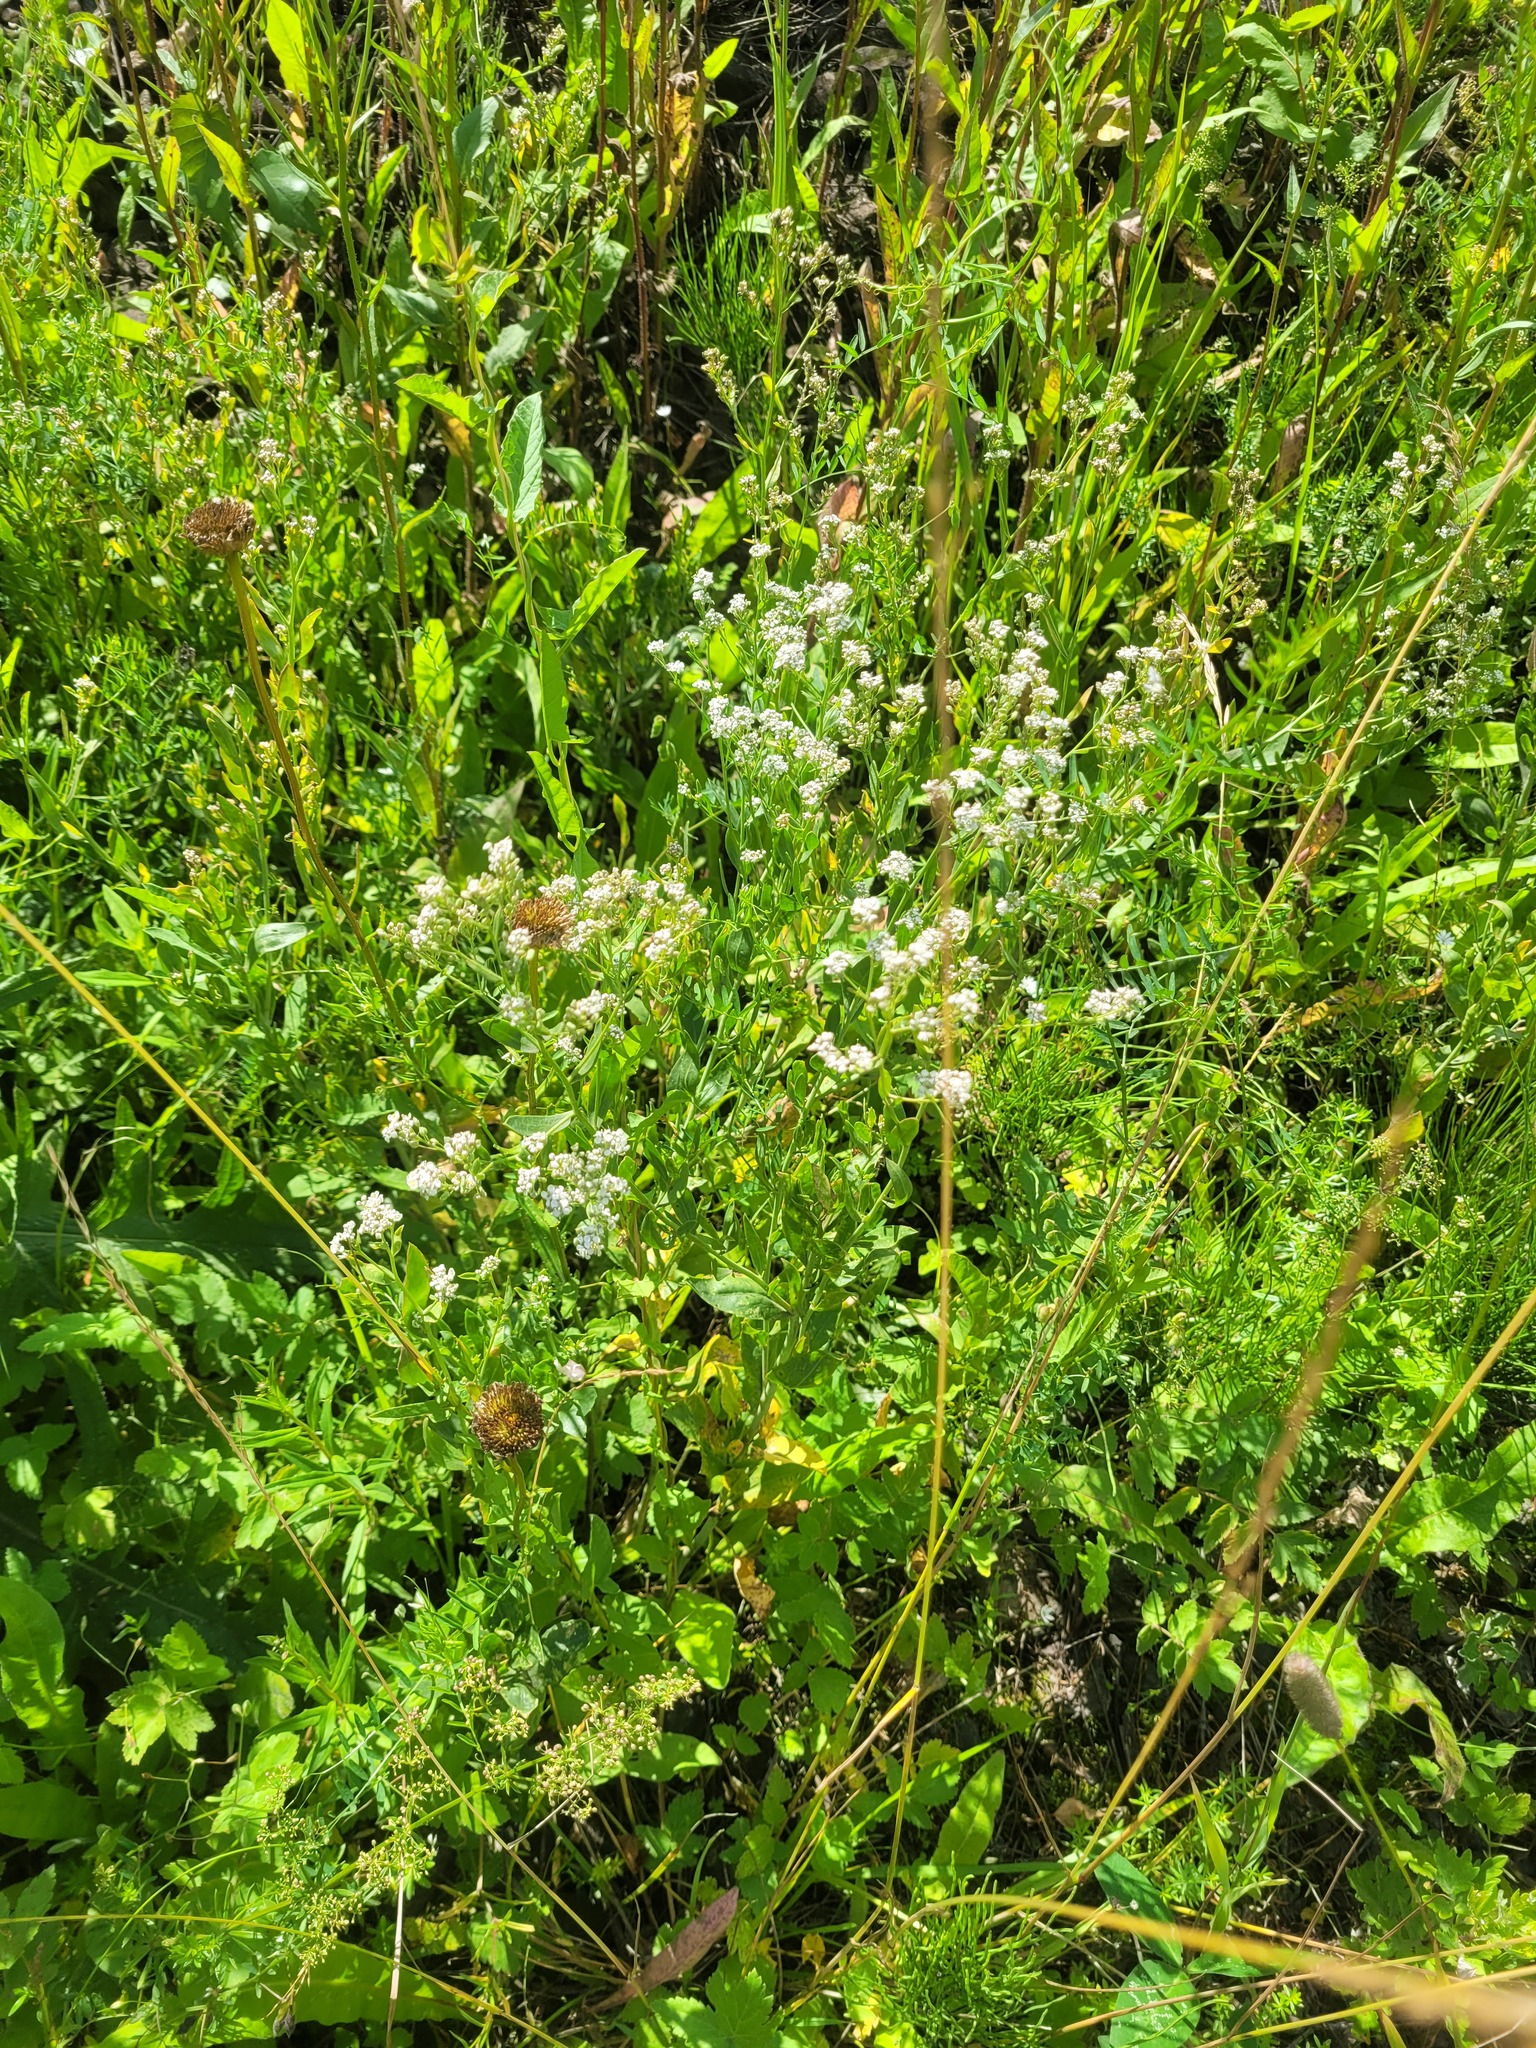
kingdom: Plantae
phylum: Tracheophyta
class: Magnoliopsida
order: Brassicales
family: Brassicaceae
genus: Lepidium
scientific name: Lepidium latifolium
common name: Dittander
